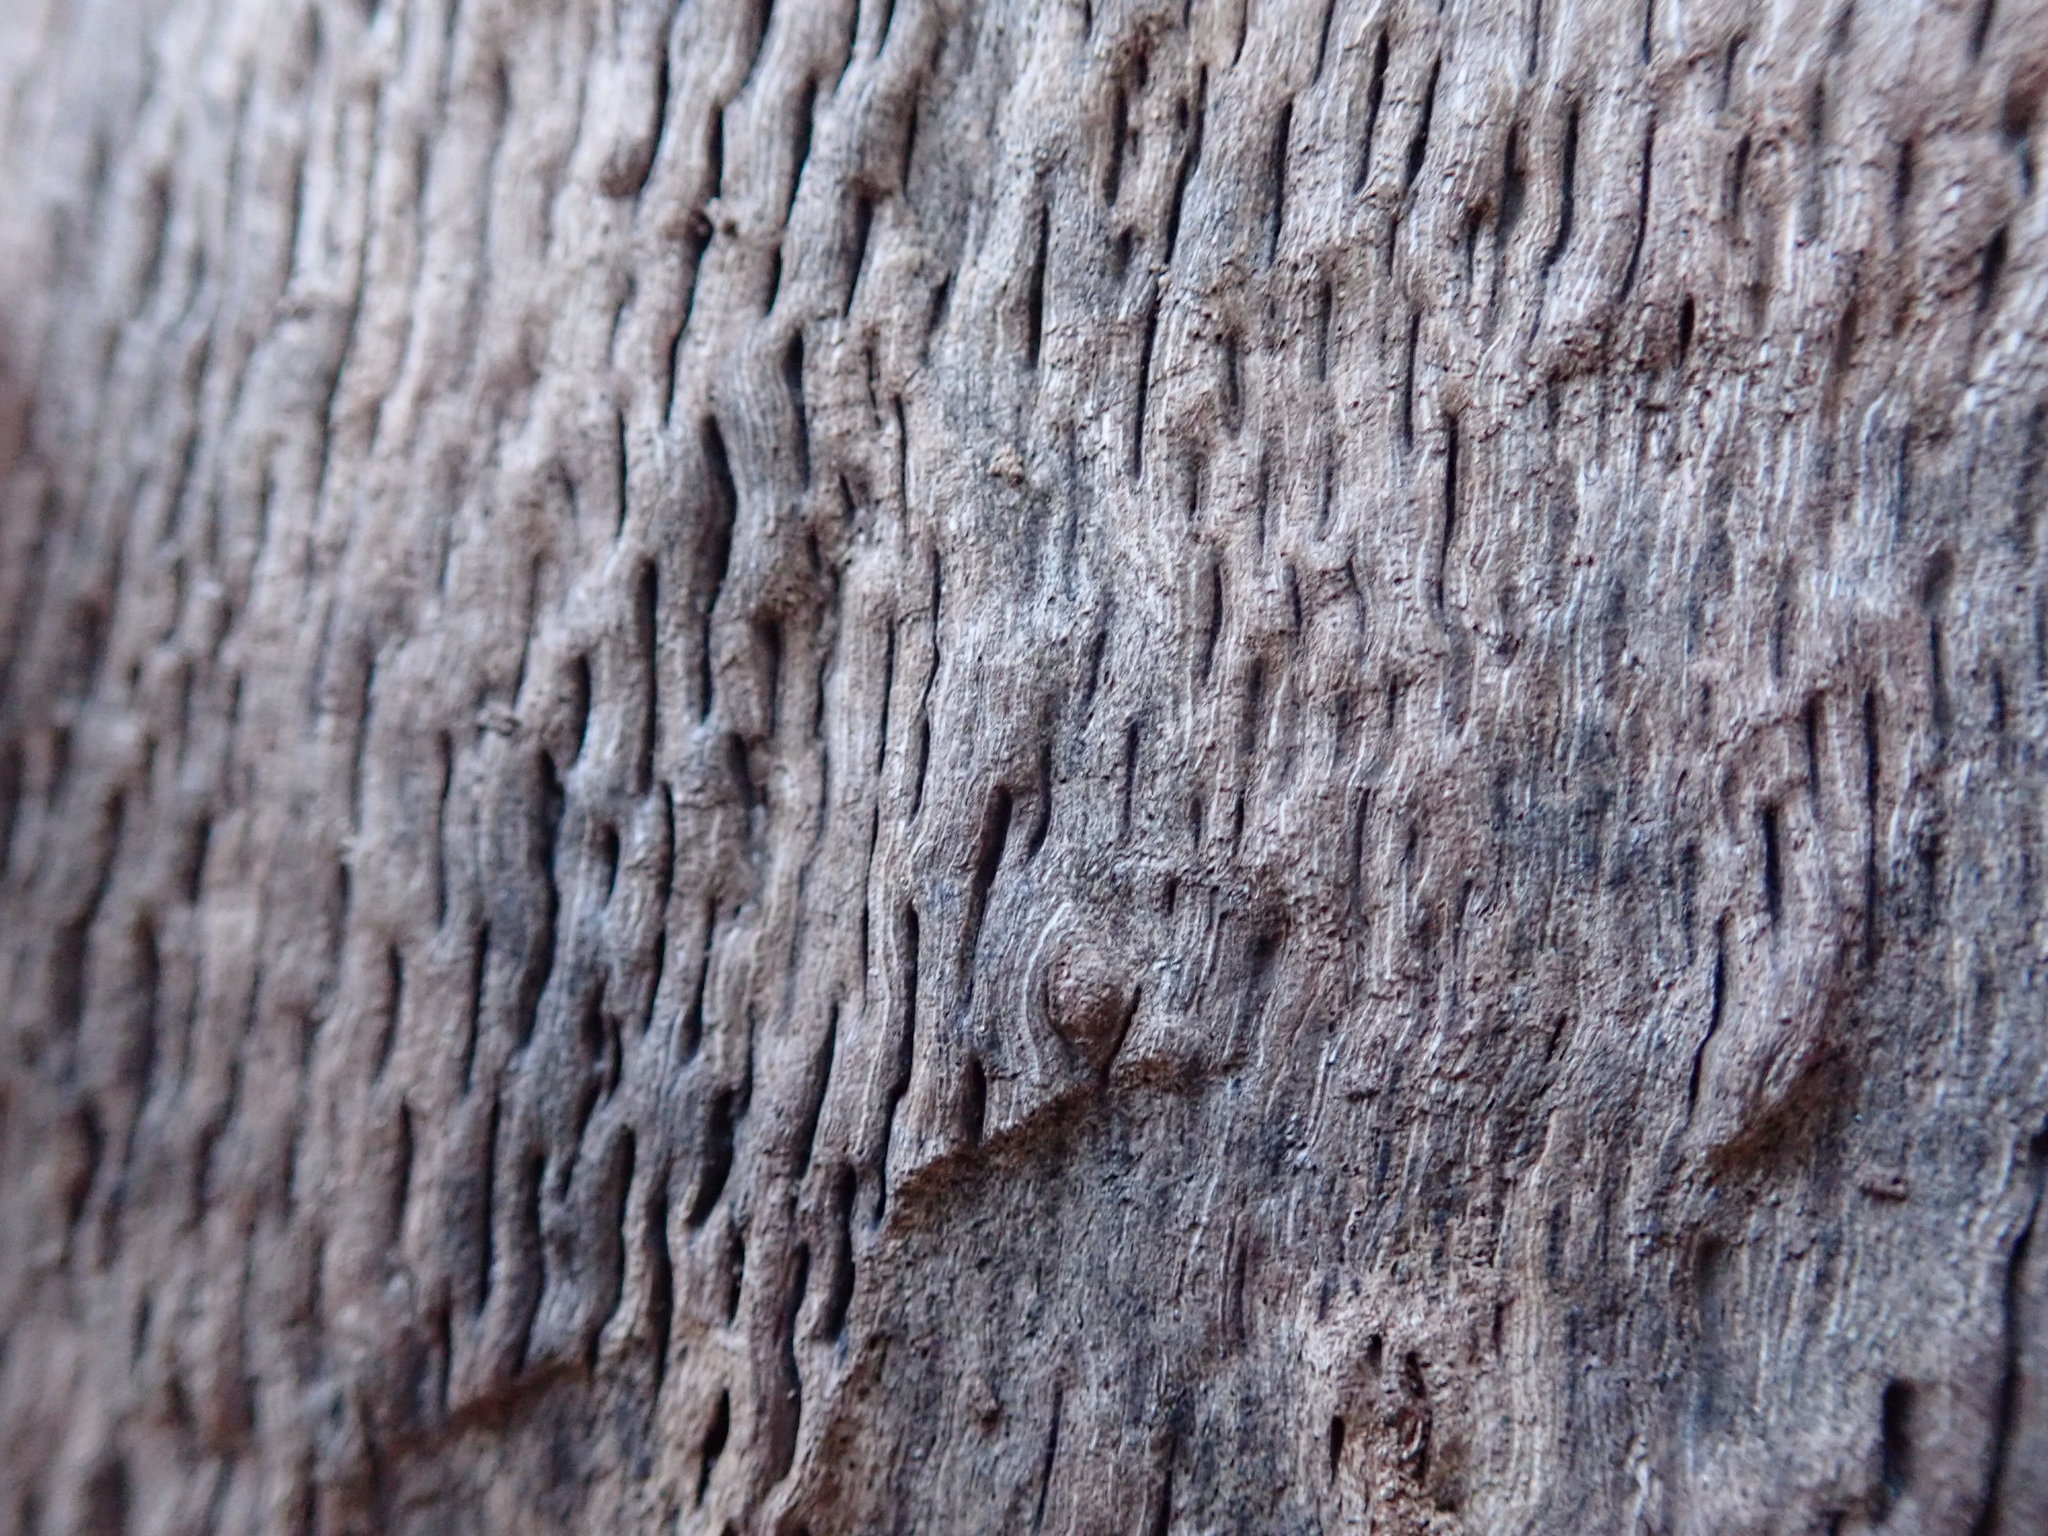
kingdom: Plantae
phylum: Tracheophyta
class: Magnoliopsida
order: Fagales
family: Fagaceae
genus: Quercus
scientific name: Quercus garryana
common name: Garry oak
